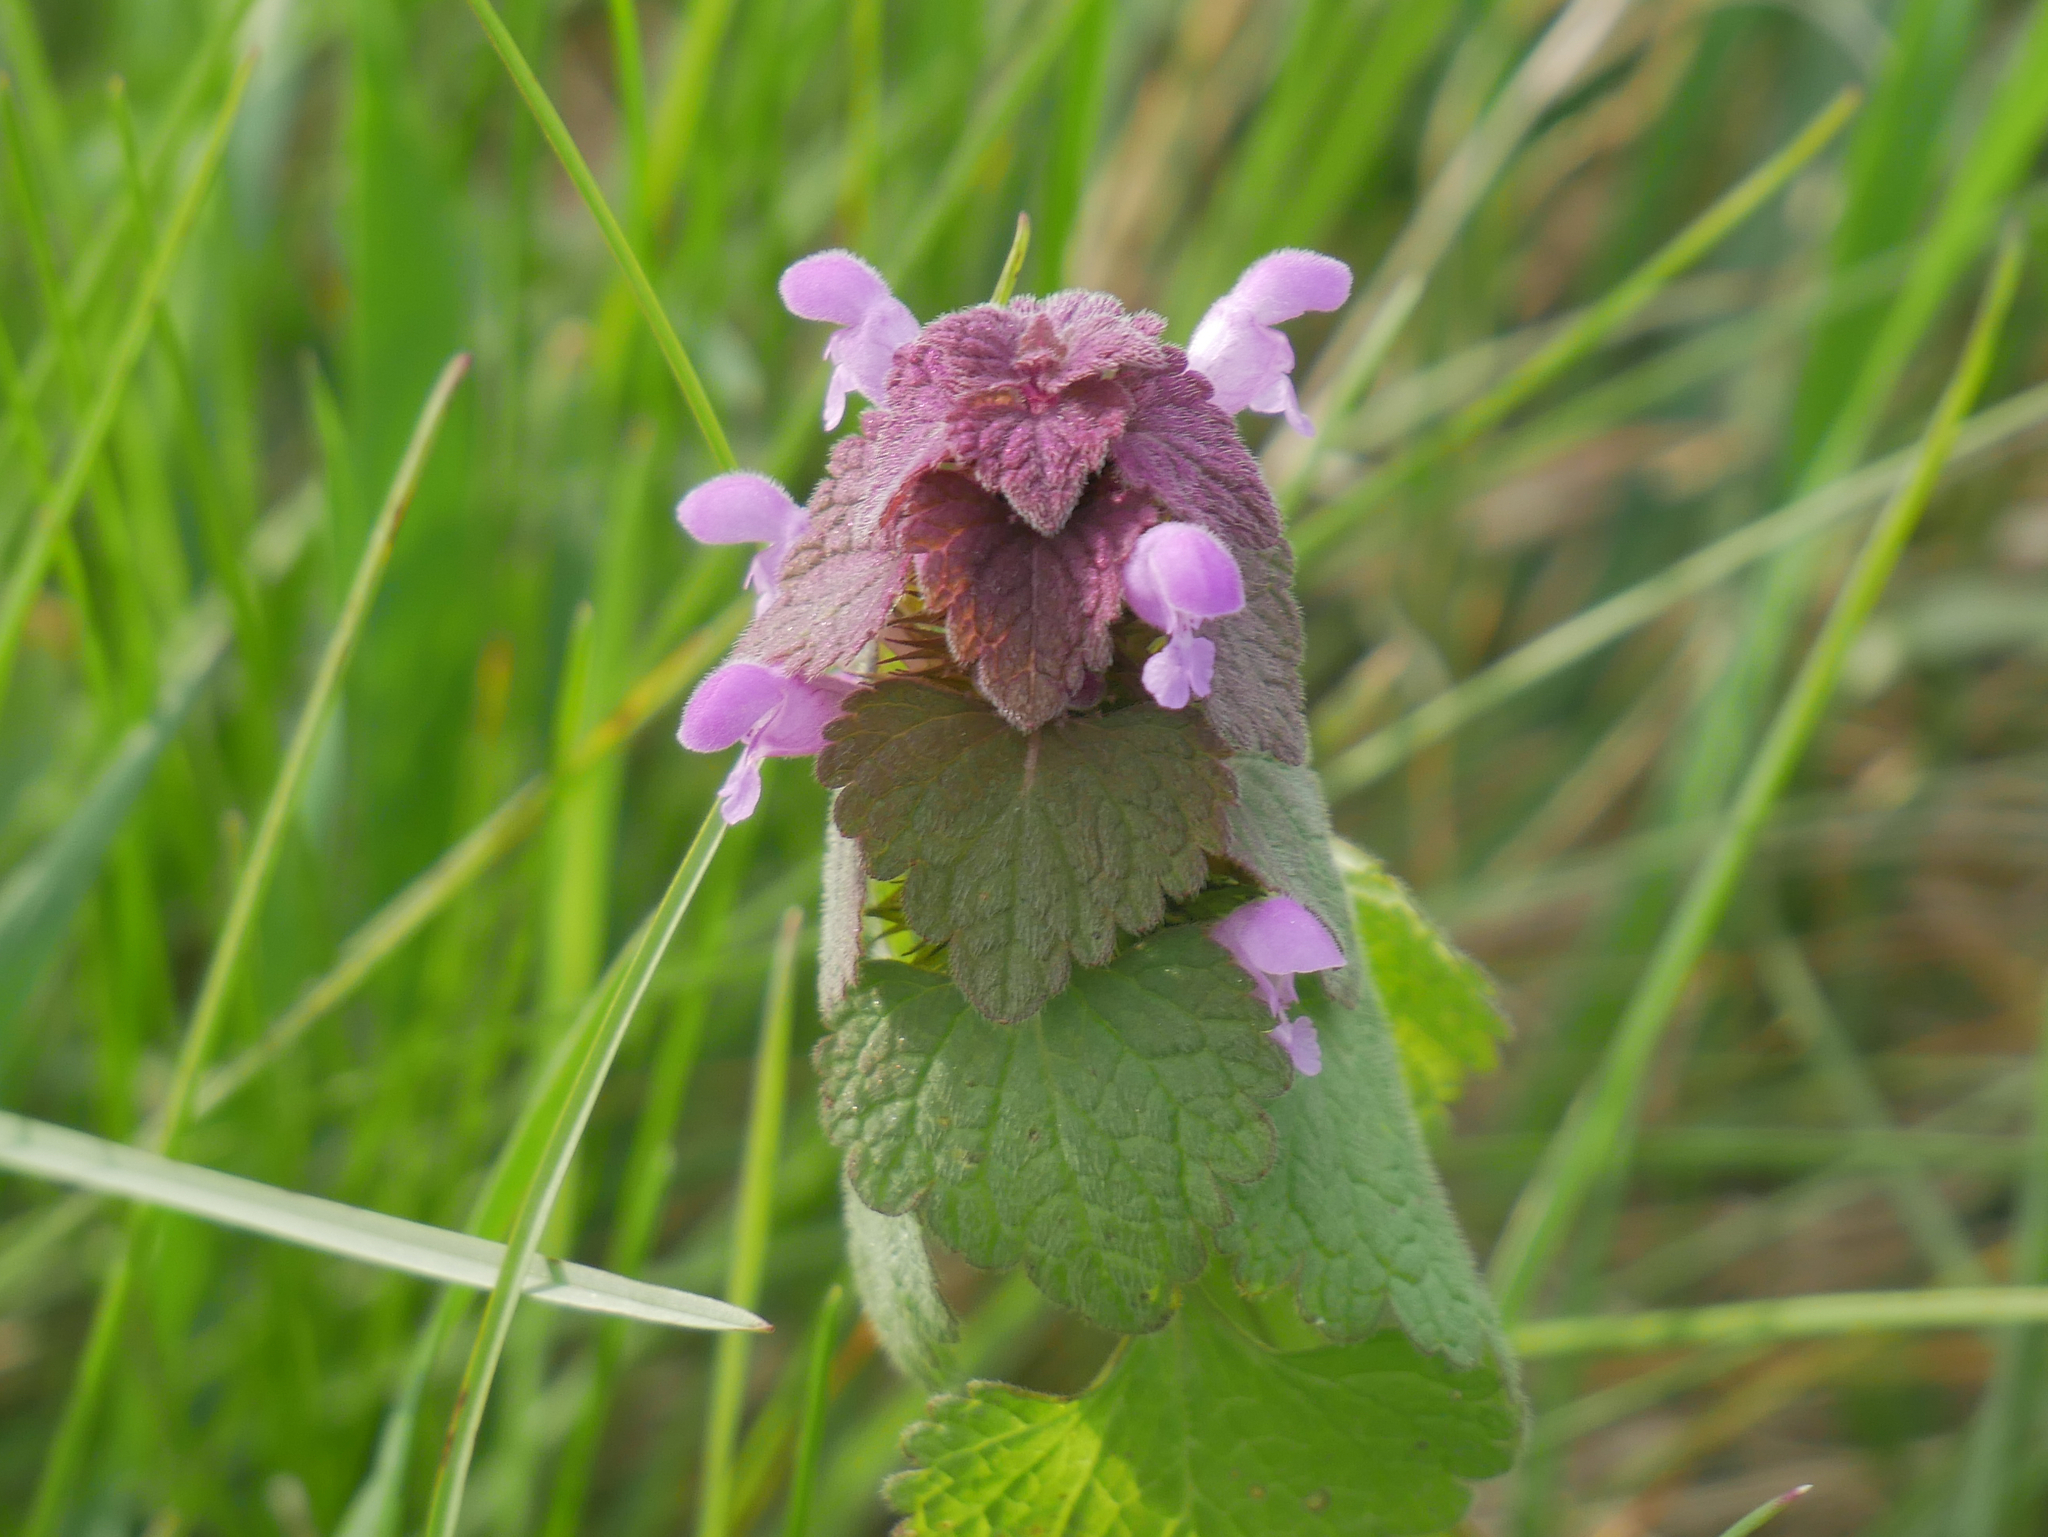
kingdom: Plantae
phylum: Tracheophyta
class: Magnoliopsida
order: Lamiales
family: Lamiaceae
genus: Lamium
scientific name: Lamium purpureum
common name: Red dead-nettle
